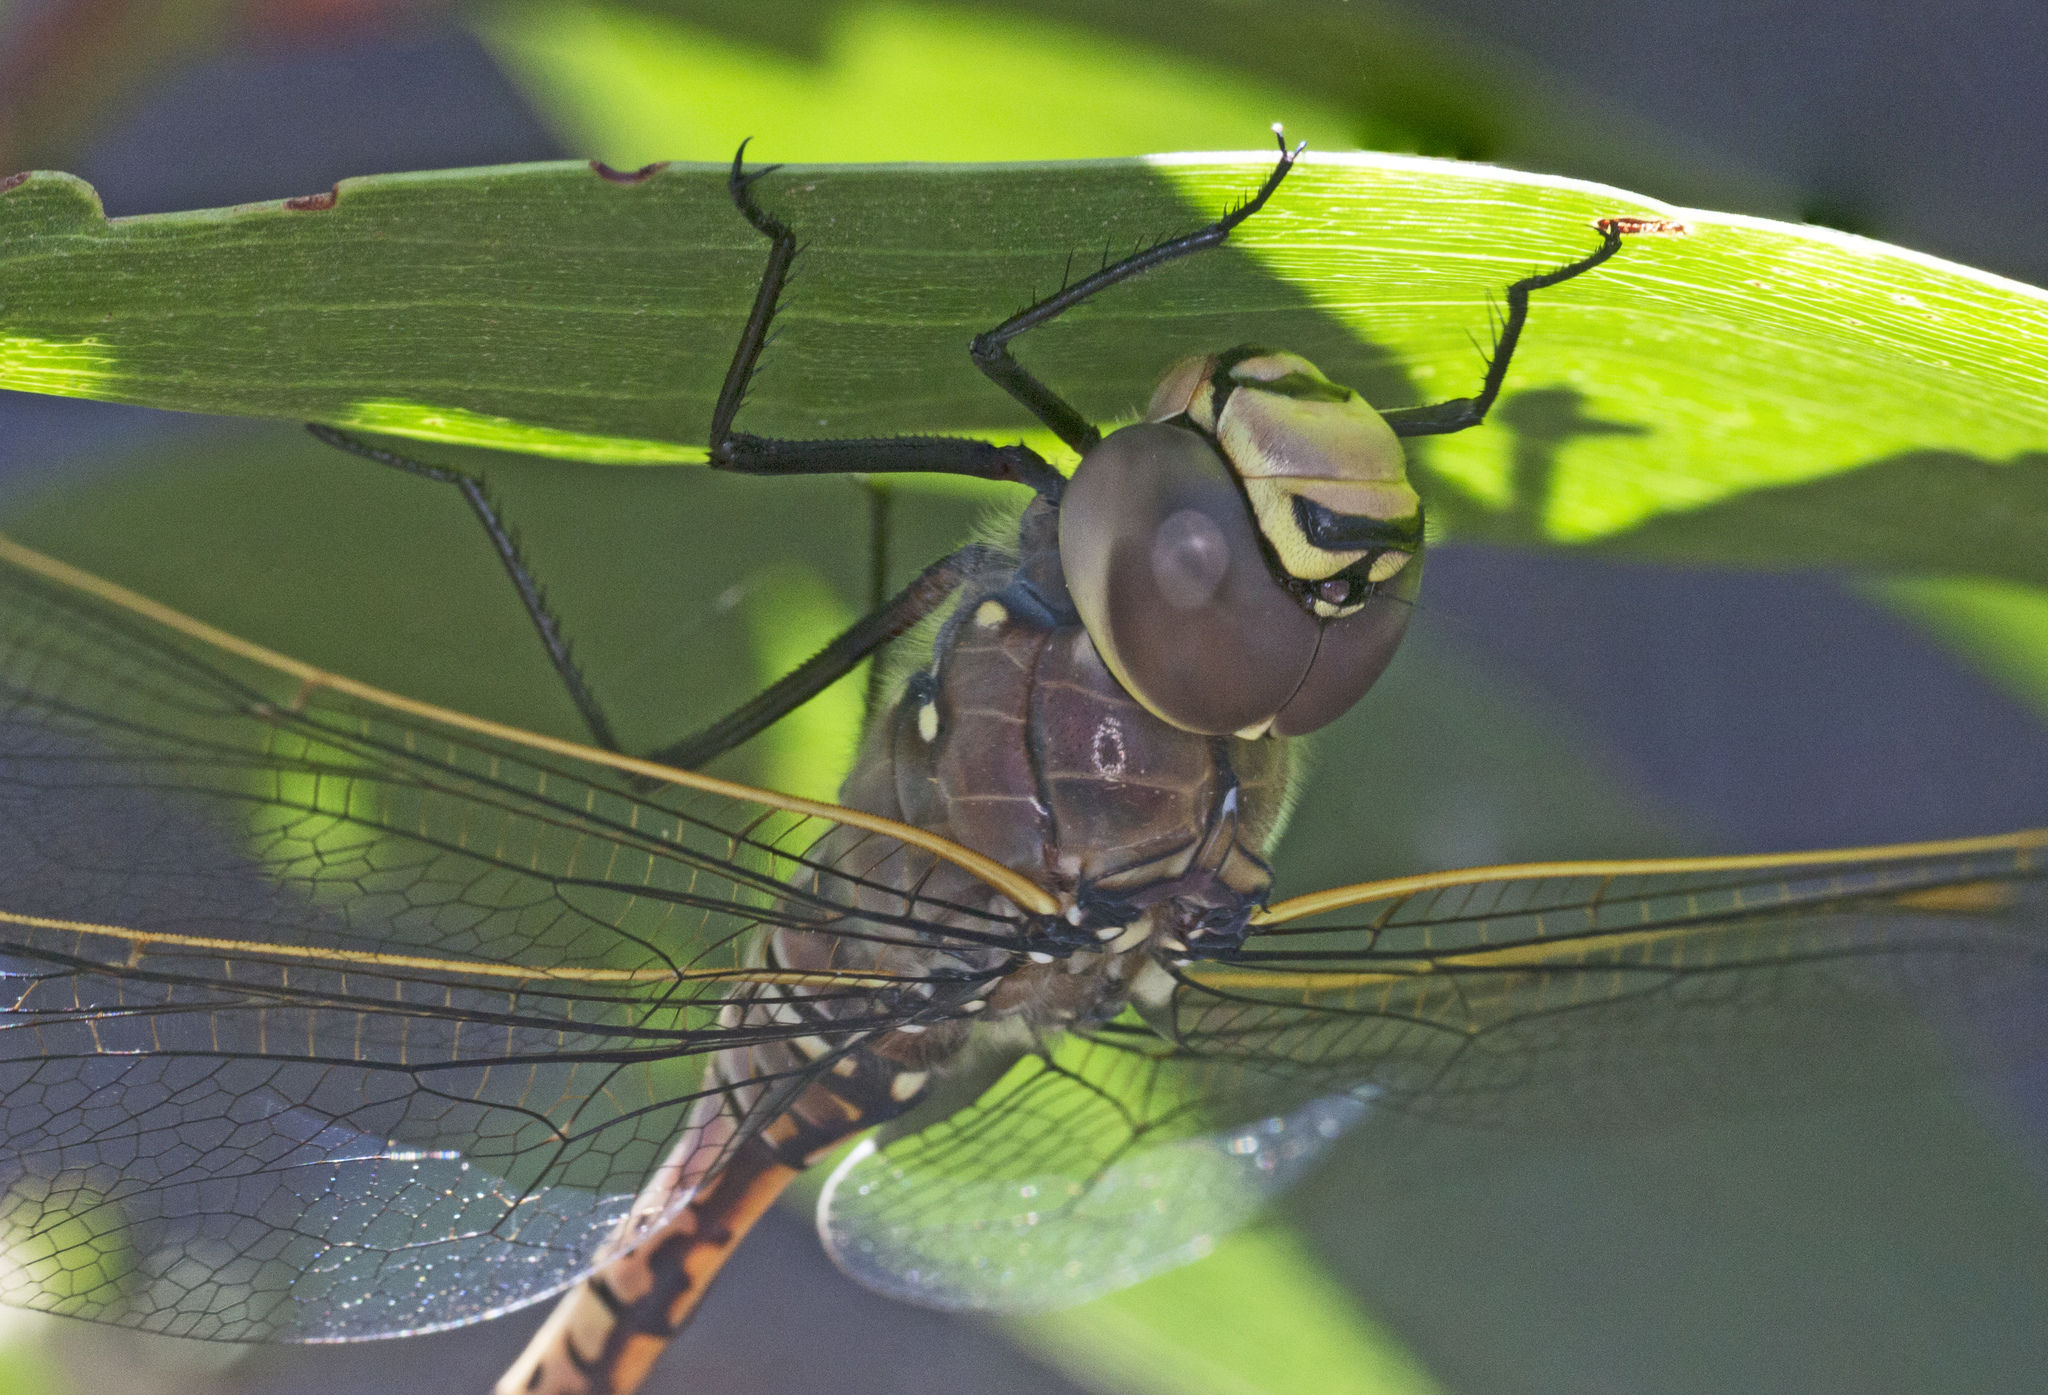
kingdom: Animalia
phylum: Arthropoda
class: Insecta
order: Odonata
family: Aeshnidae
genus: Anax
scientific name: Anax papuensis
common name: Australian emperor
